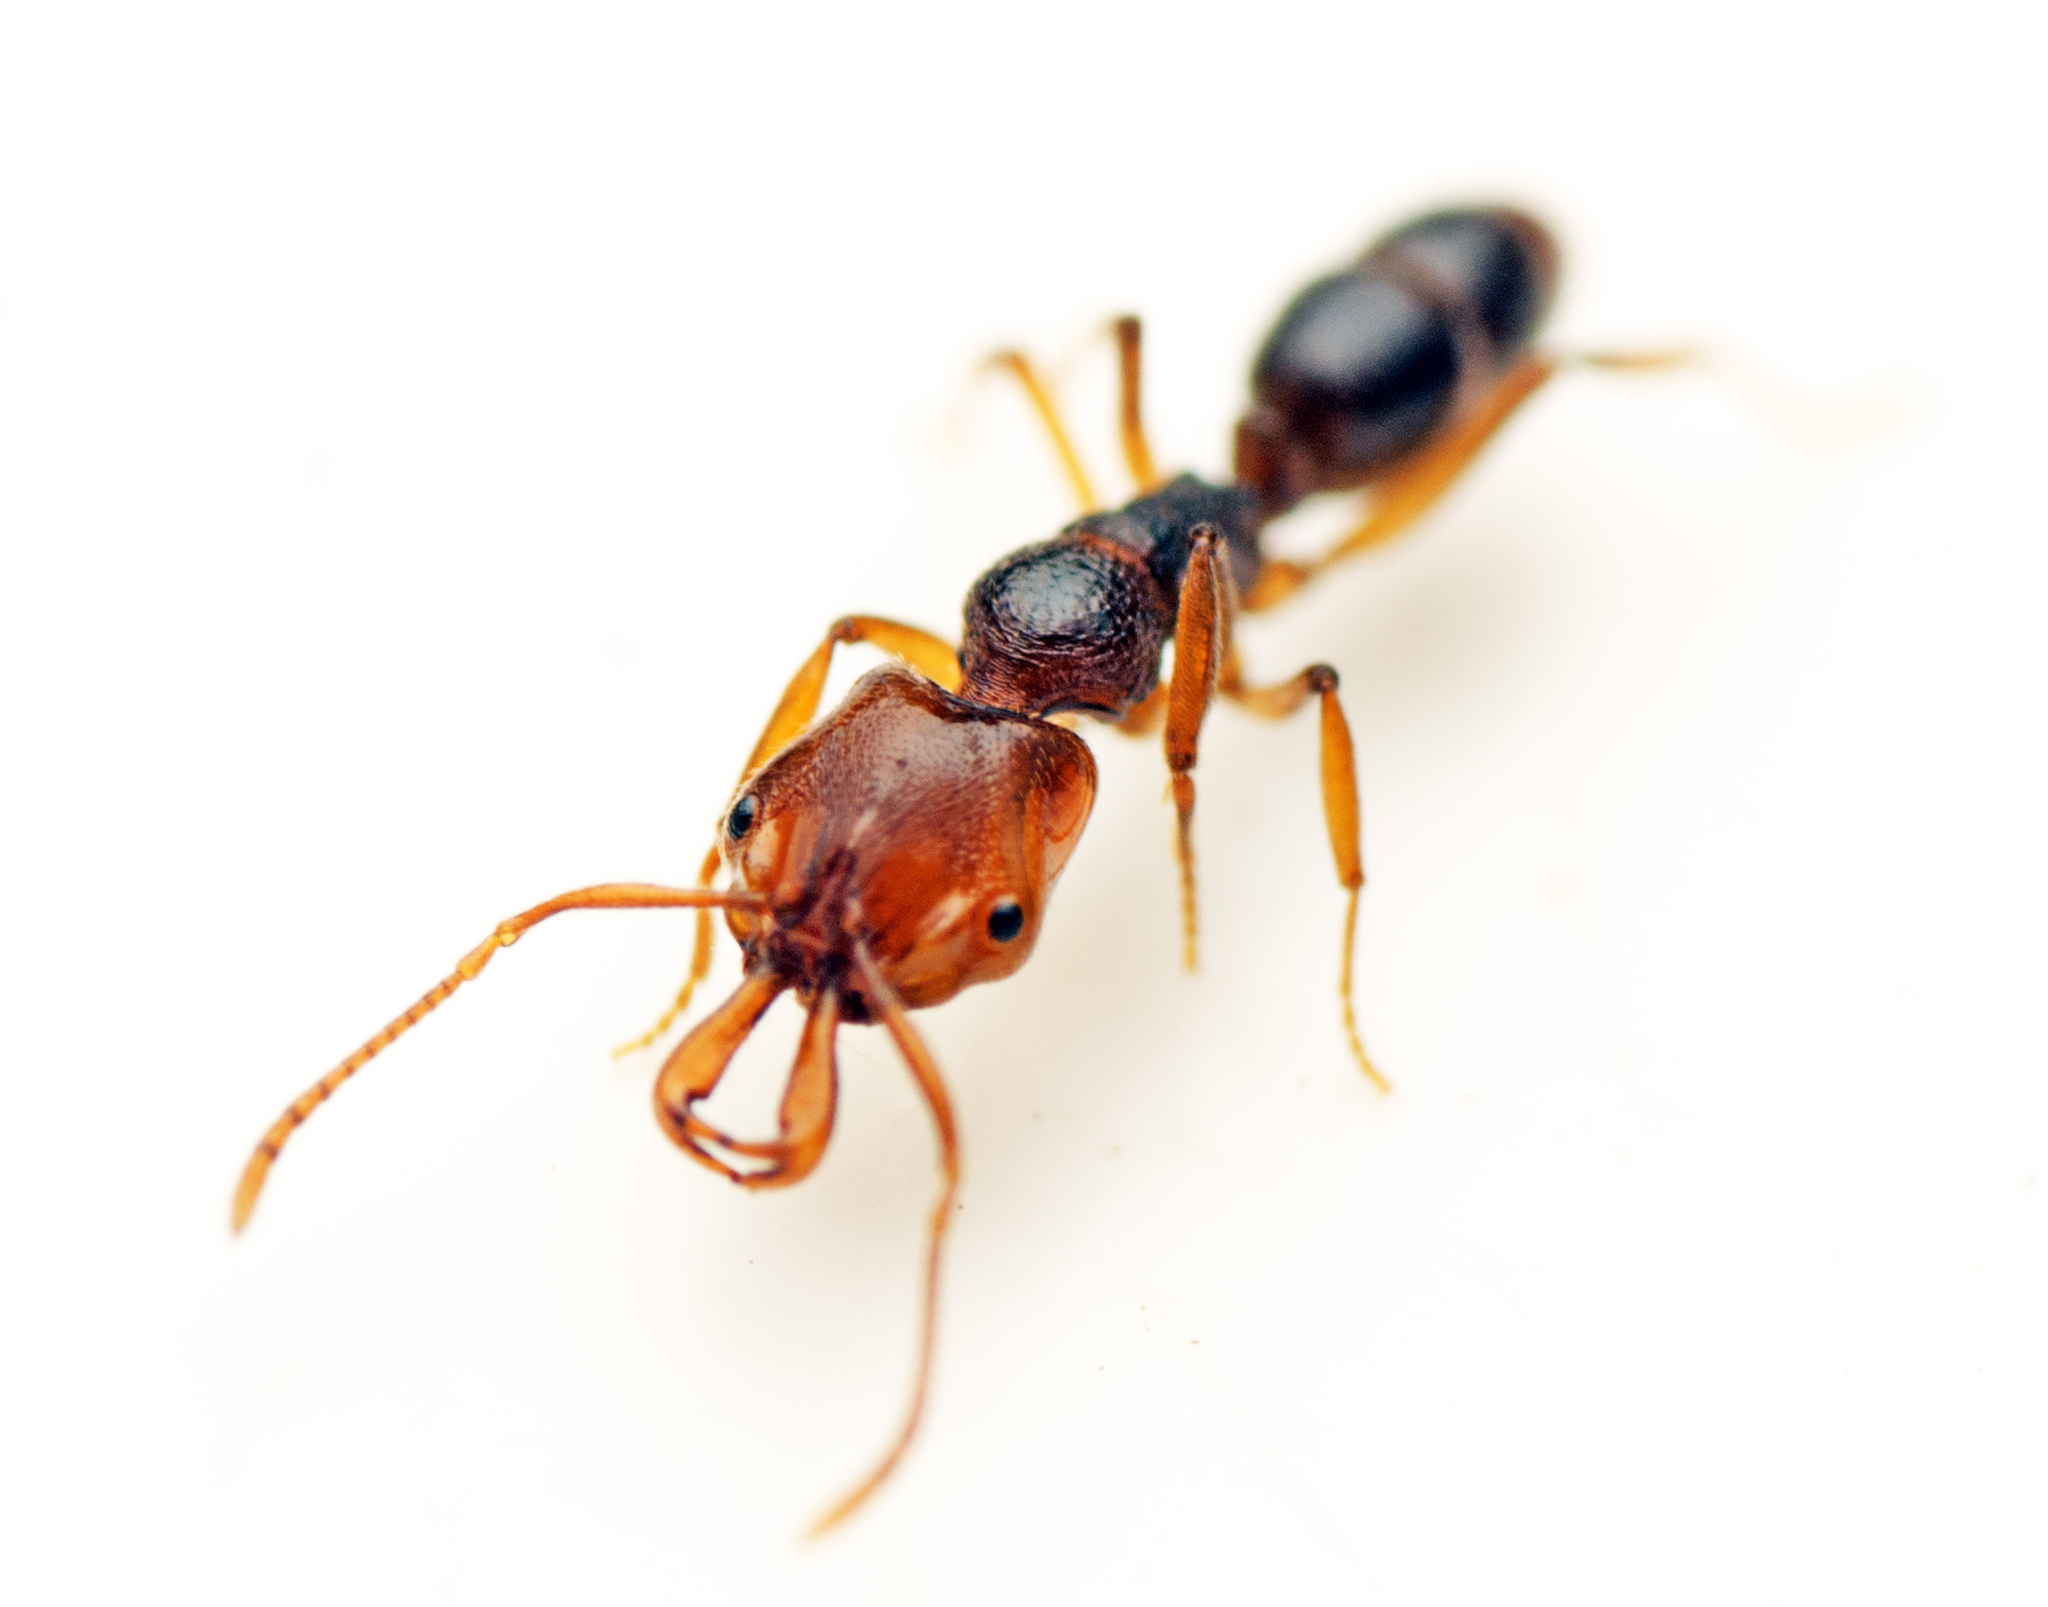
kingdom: Animalia
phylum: Arthropoda
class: Insecta
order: Hymenoptera
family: Formicidae
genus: Anochetus
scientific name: Anochetus graeffei
